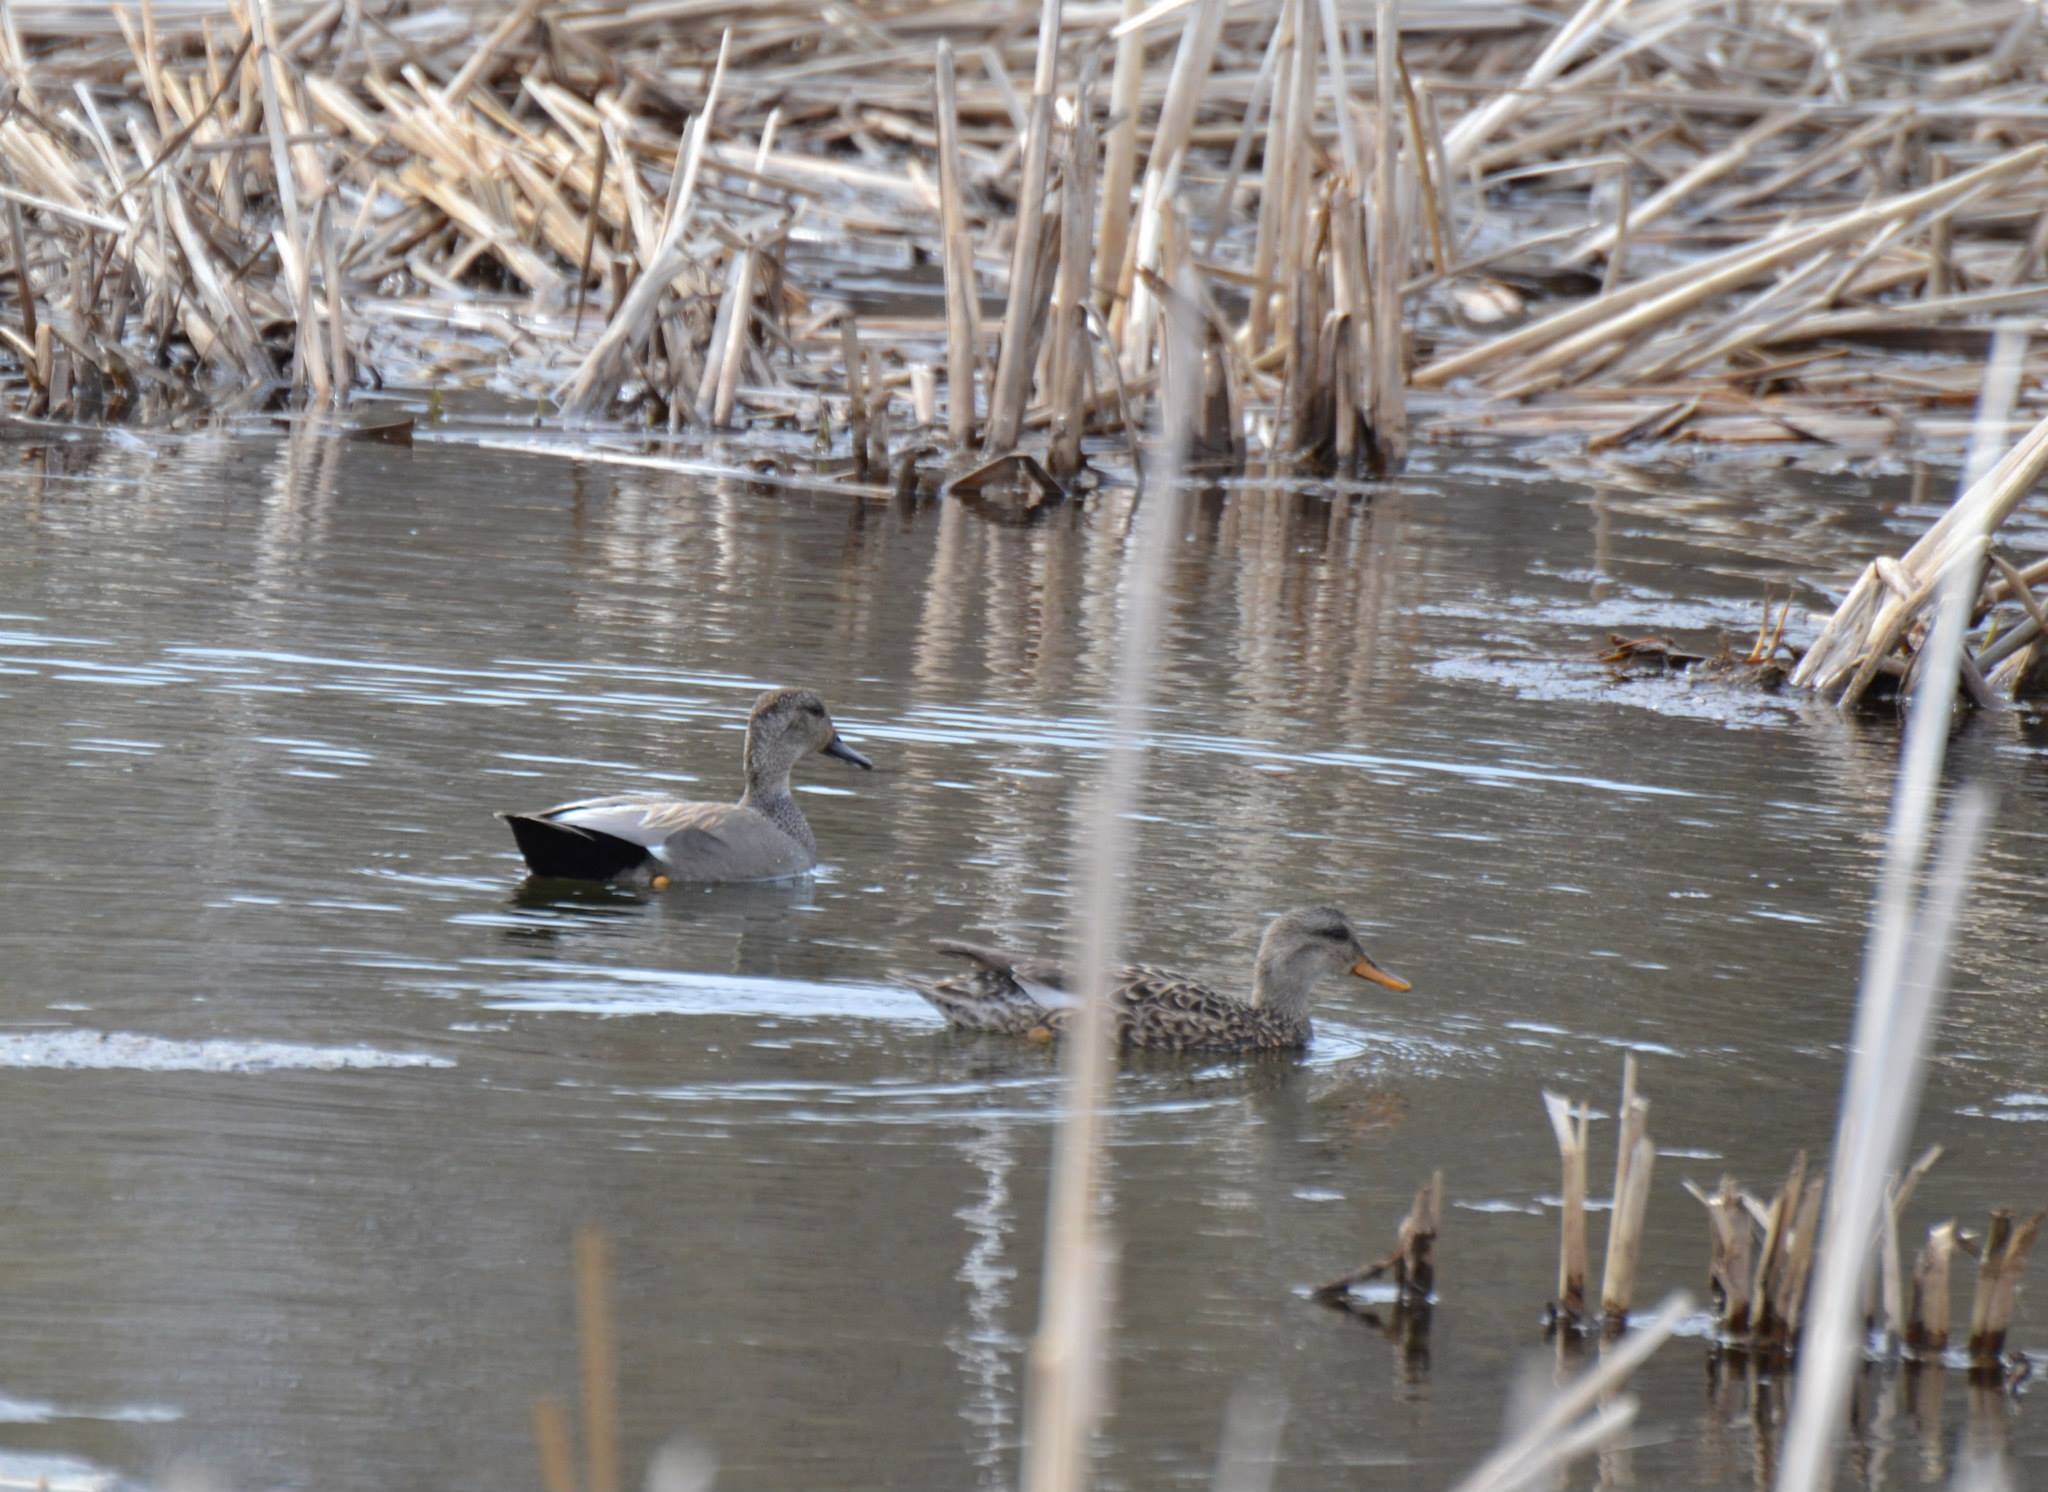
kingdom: Animalia
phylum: Chordata
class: Aves
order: Anseriformes
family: Anatidae
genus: Mareca
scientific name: Mareca strepera
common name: Gadwall
